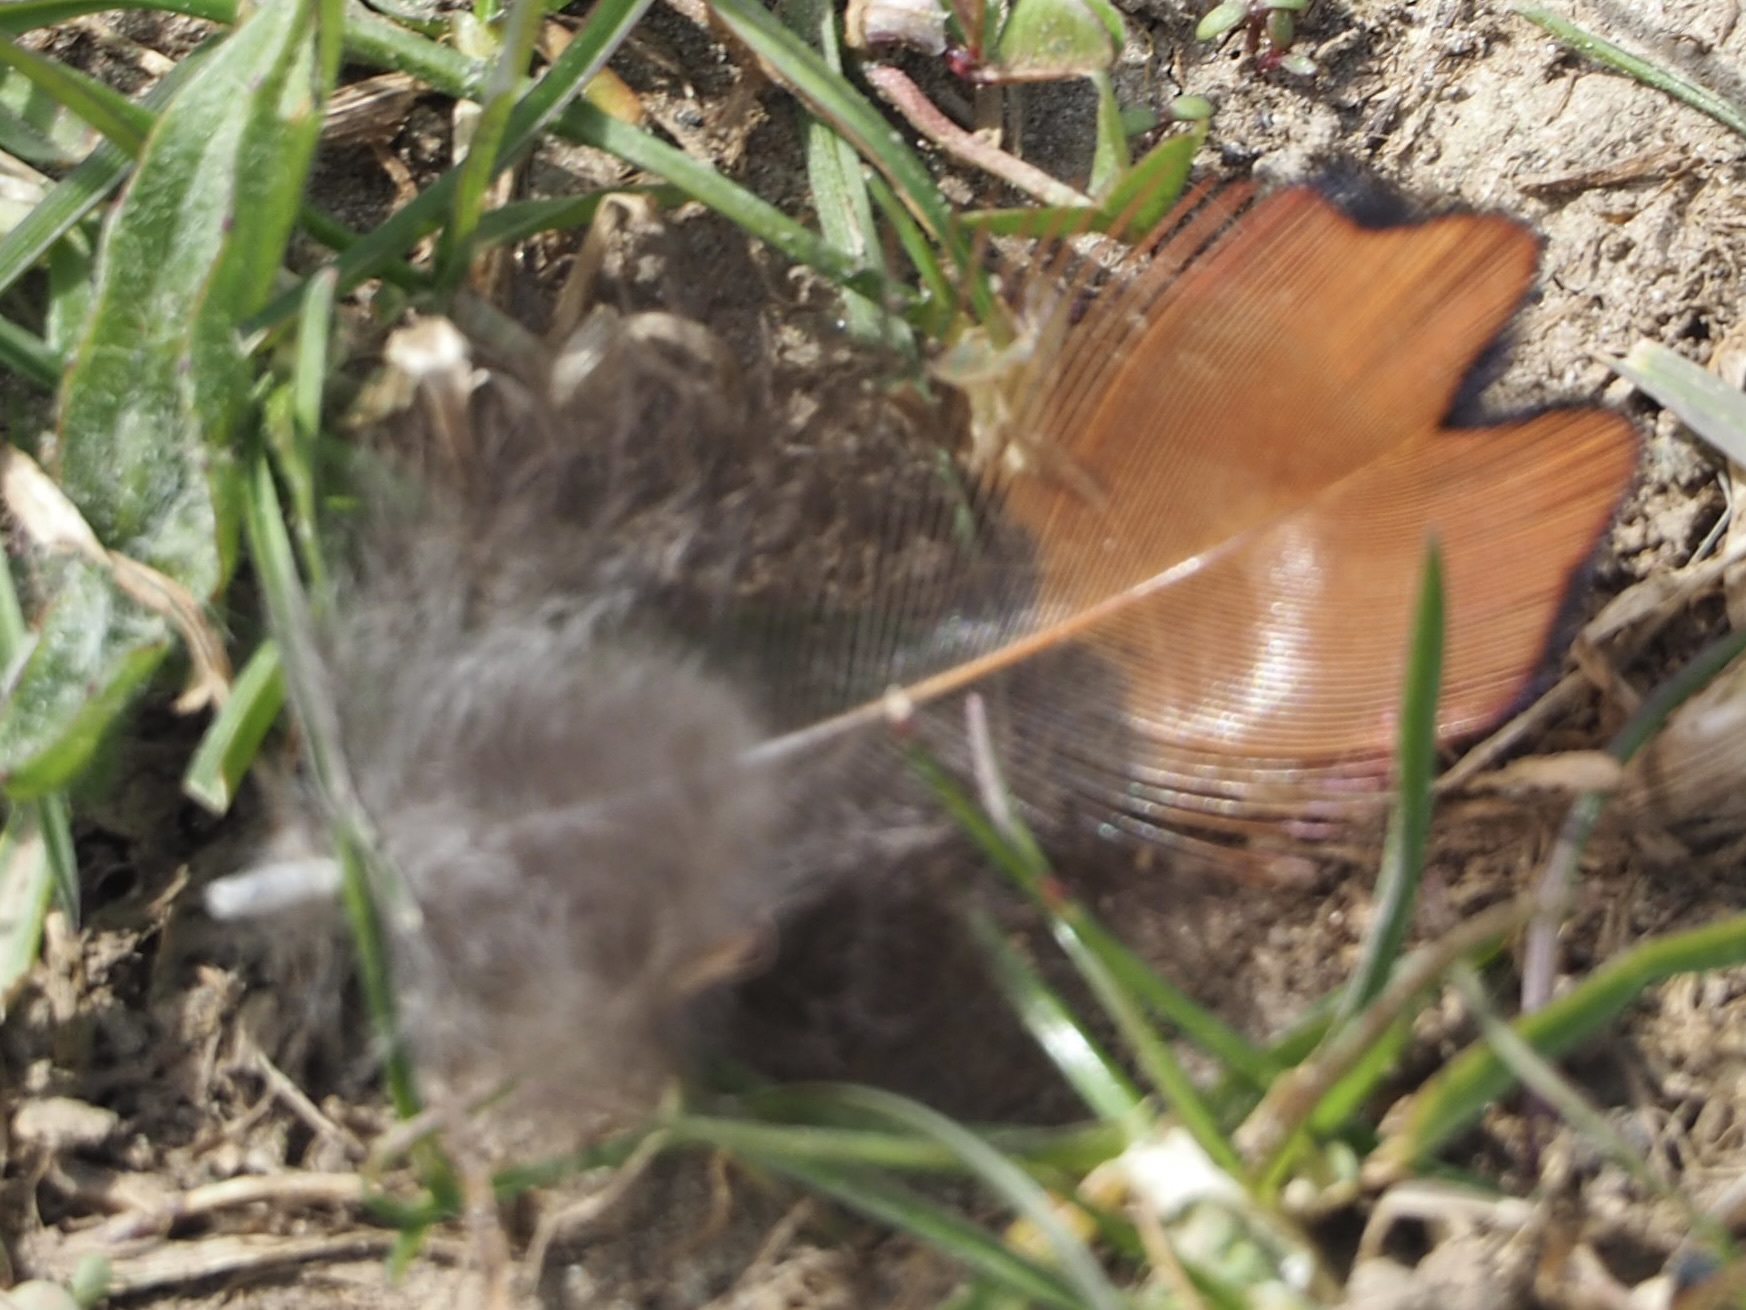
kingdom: Animalia
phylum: Chordata
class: Aves
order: Galliformes
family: Phasianidae
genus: Phasianus
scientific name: Phasianus colchicus
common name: Common pheasant
